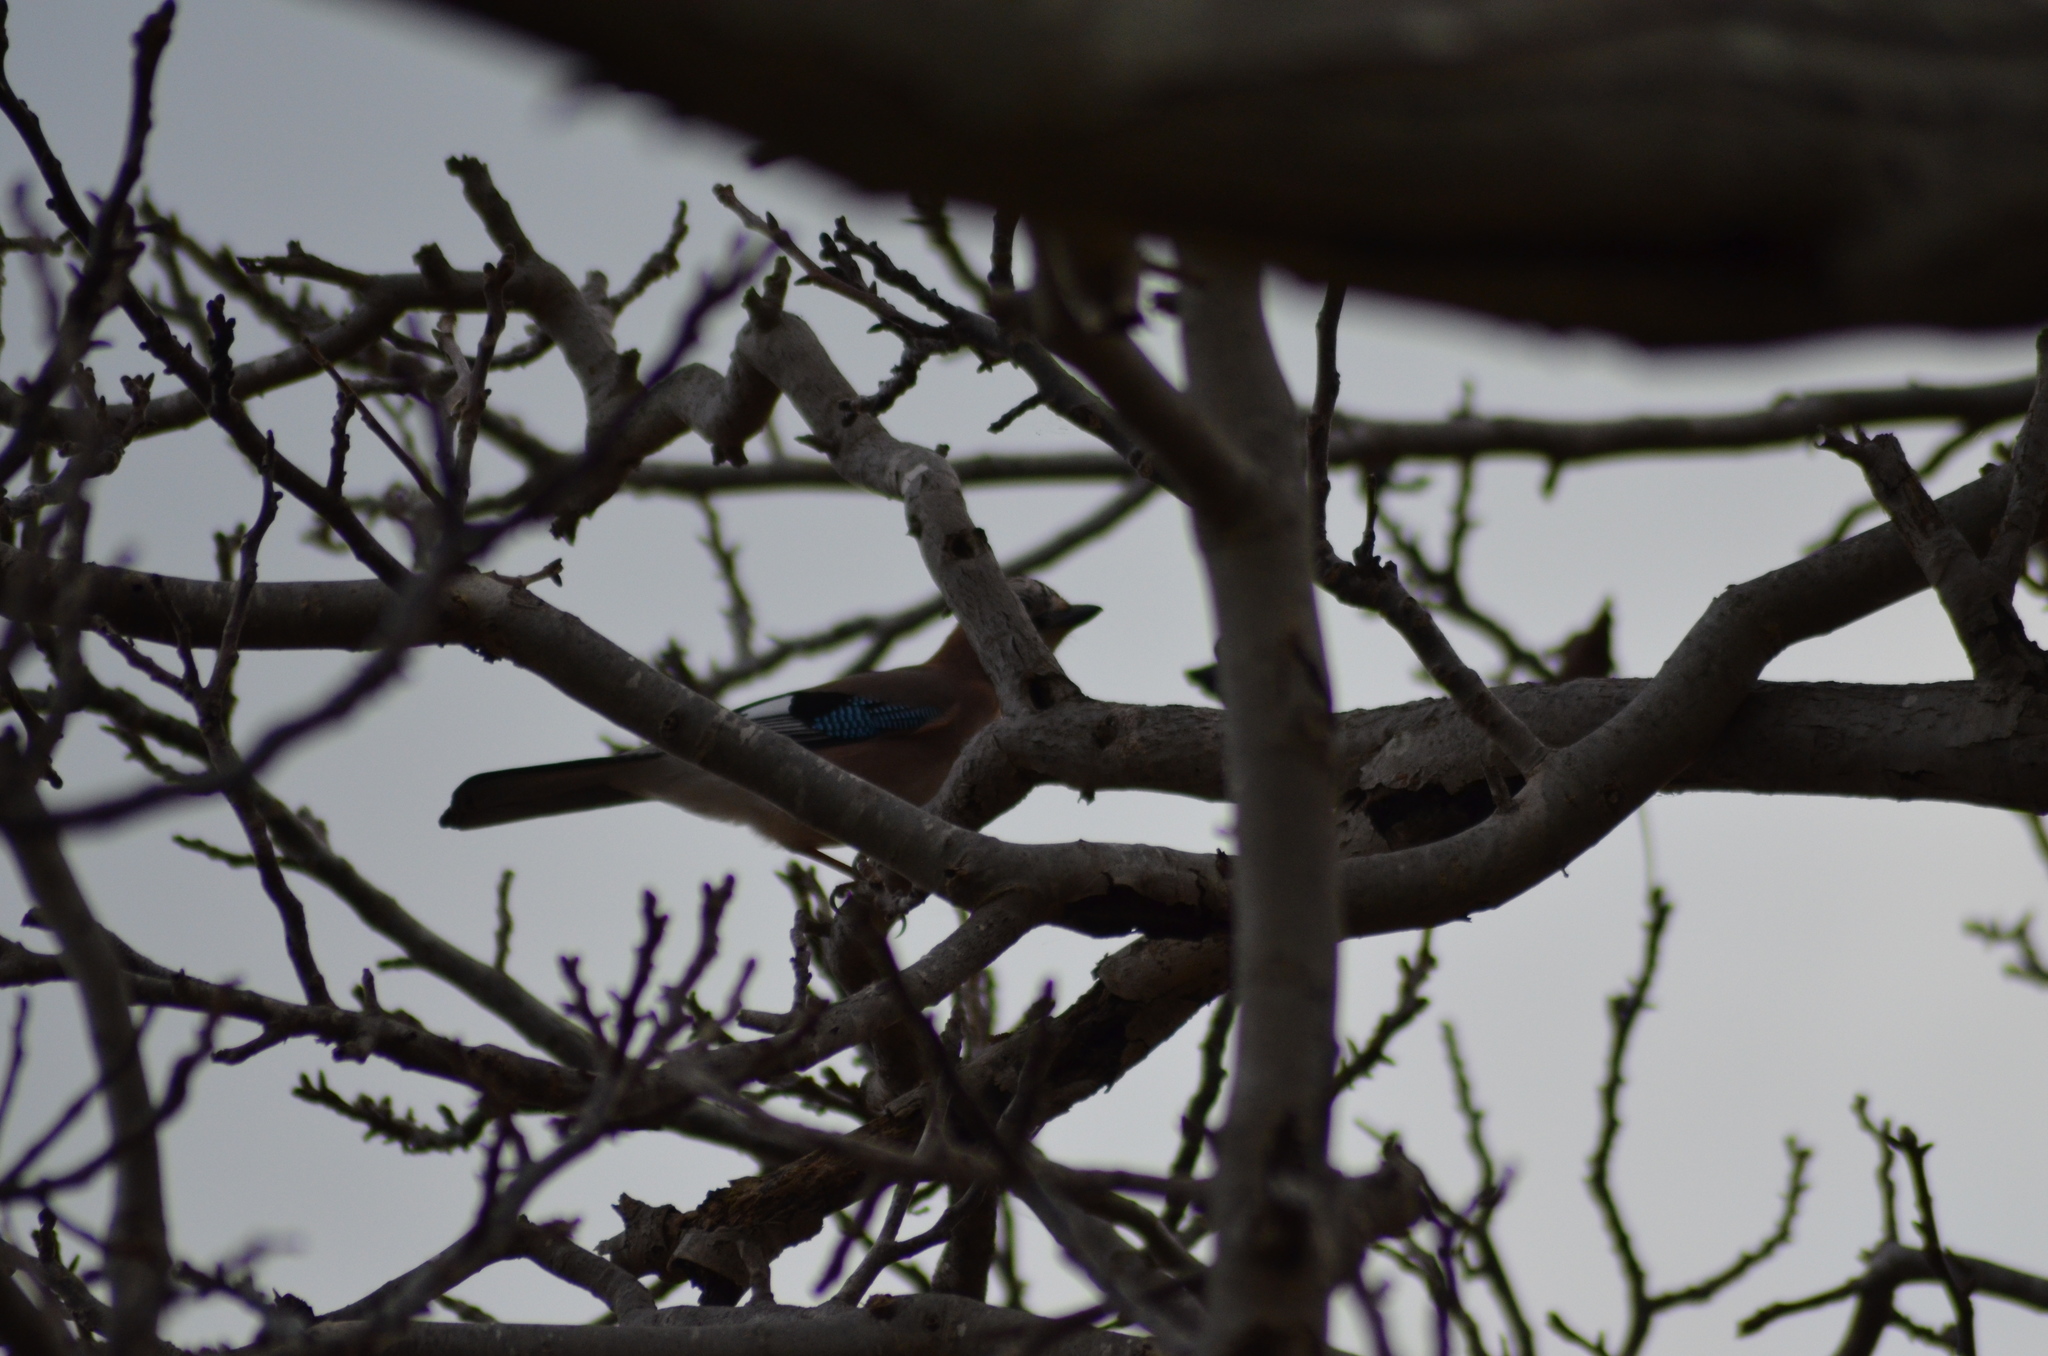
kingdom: Animalia
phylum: Chordata
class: Aves
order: Passeriformes
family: Corvidae
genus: Garrulus
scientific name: Garrulus glandarius
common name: Eurasian jay
